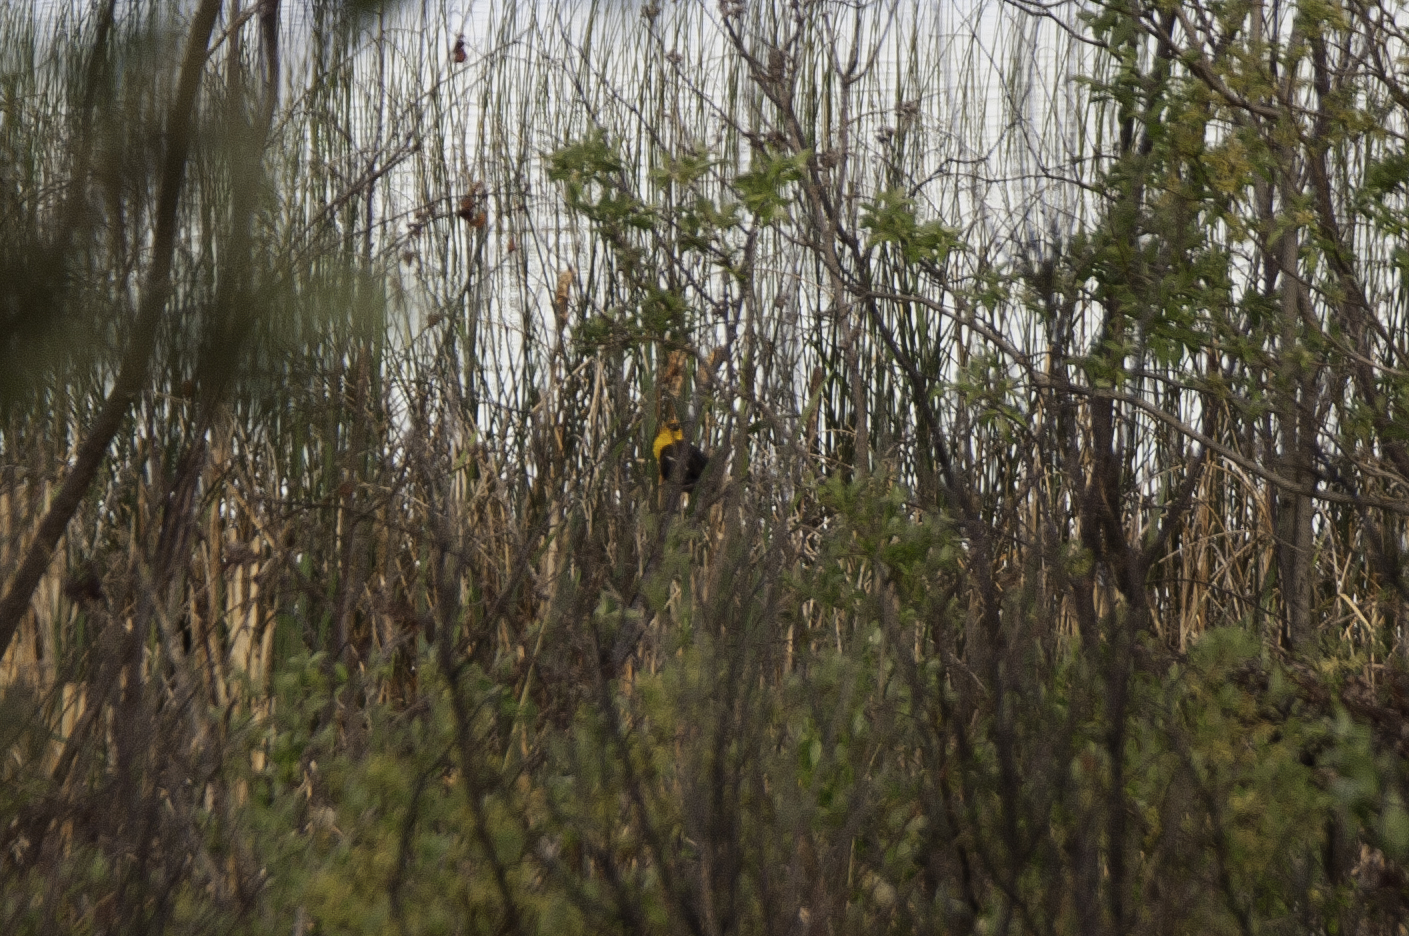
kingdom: Animalia
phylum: Chordata
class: Aves
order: Passeriformes
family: Icteridae
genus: Xanthocephalus
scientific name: Xanthocephalus xanthocephalus
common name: Yellow-headed blackbird
